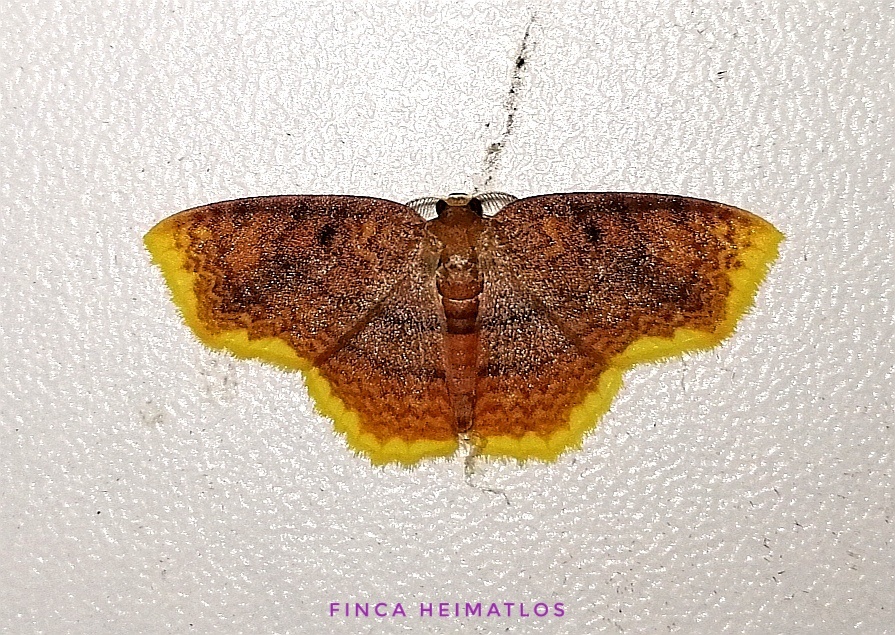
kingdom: Animalia
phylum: Arthropoda
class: Insecta
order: Lepidoptera
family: Geometridae
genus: Eois
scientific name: Eois serrilineata
